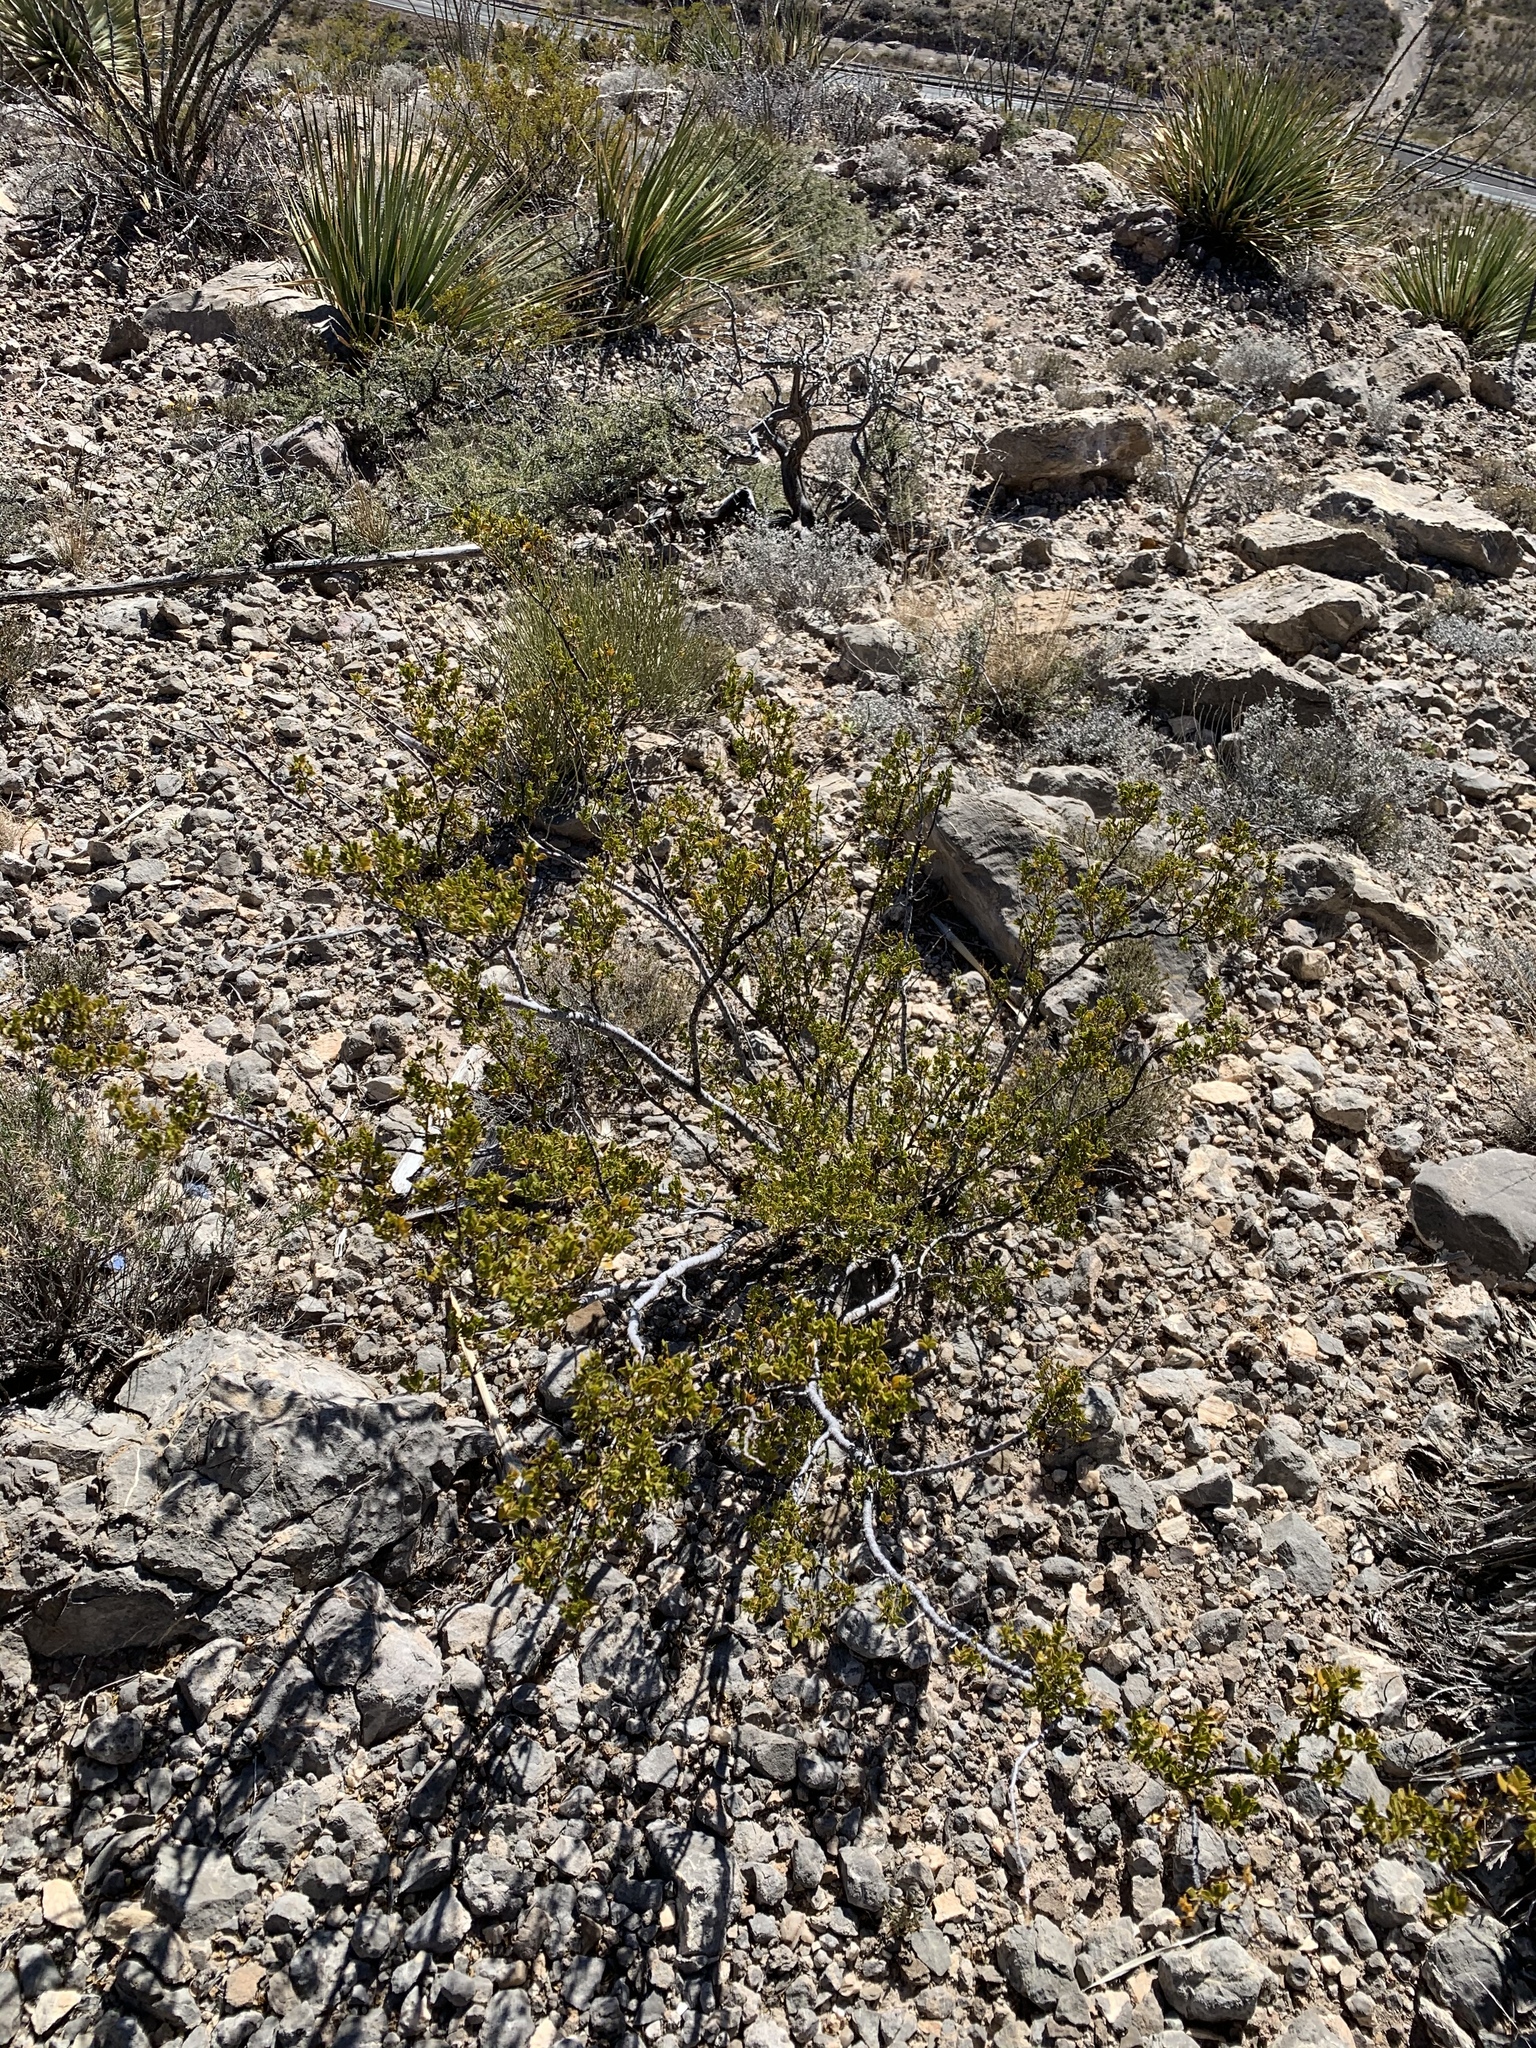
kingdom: Plantae
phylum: Tracheophyta
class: Magnoliopsida
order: Zygophyllales
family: Zygophyllaceae
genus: Larrea
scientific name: Larrea tridentata
